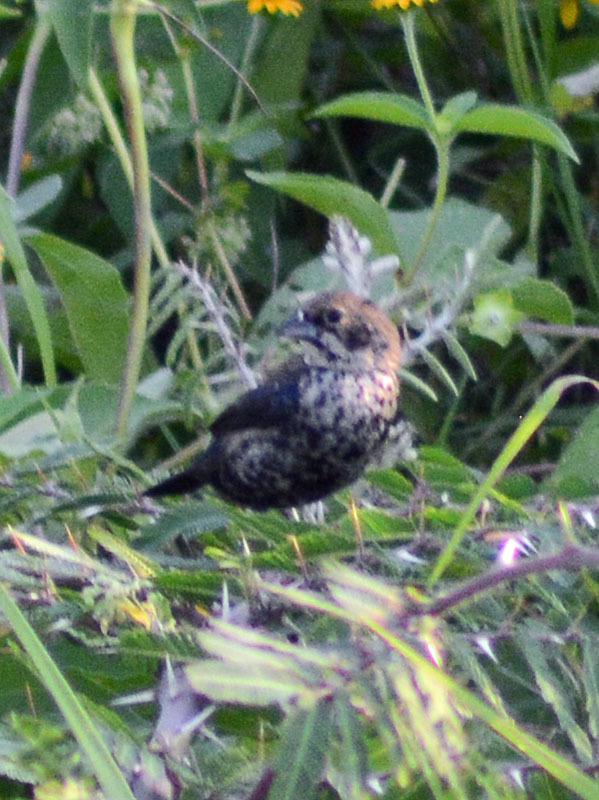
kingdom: Animalia
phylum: Chordata
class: Aves
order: Passeriformes
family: Thraupidae
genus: Volatinia
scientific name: Volatinia jacarina
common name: Blue-black grassquit
